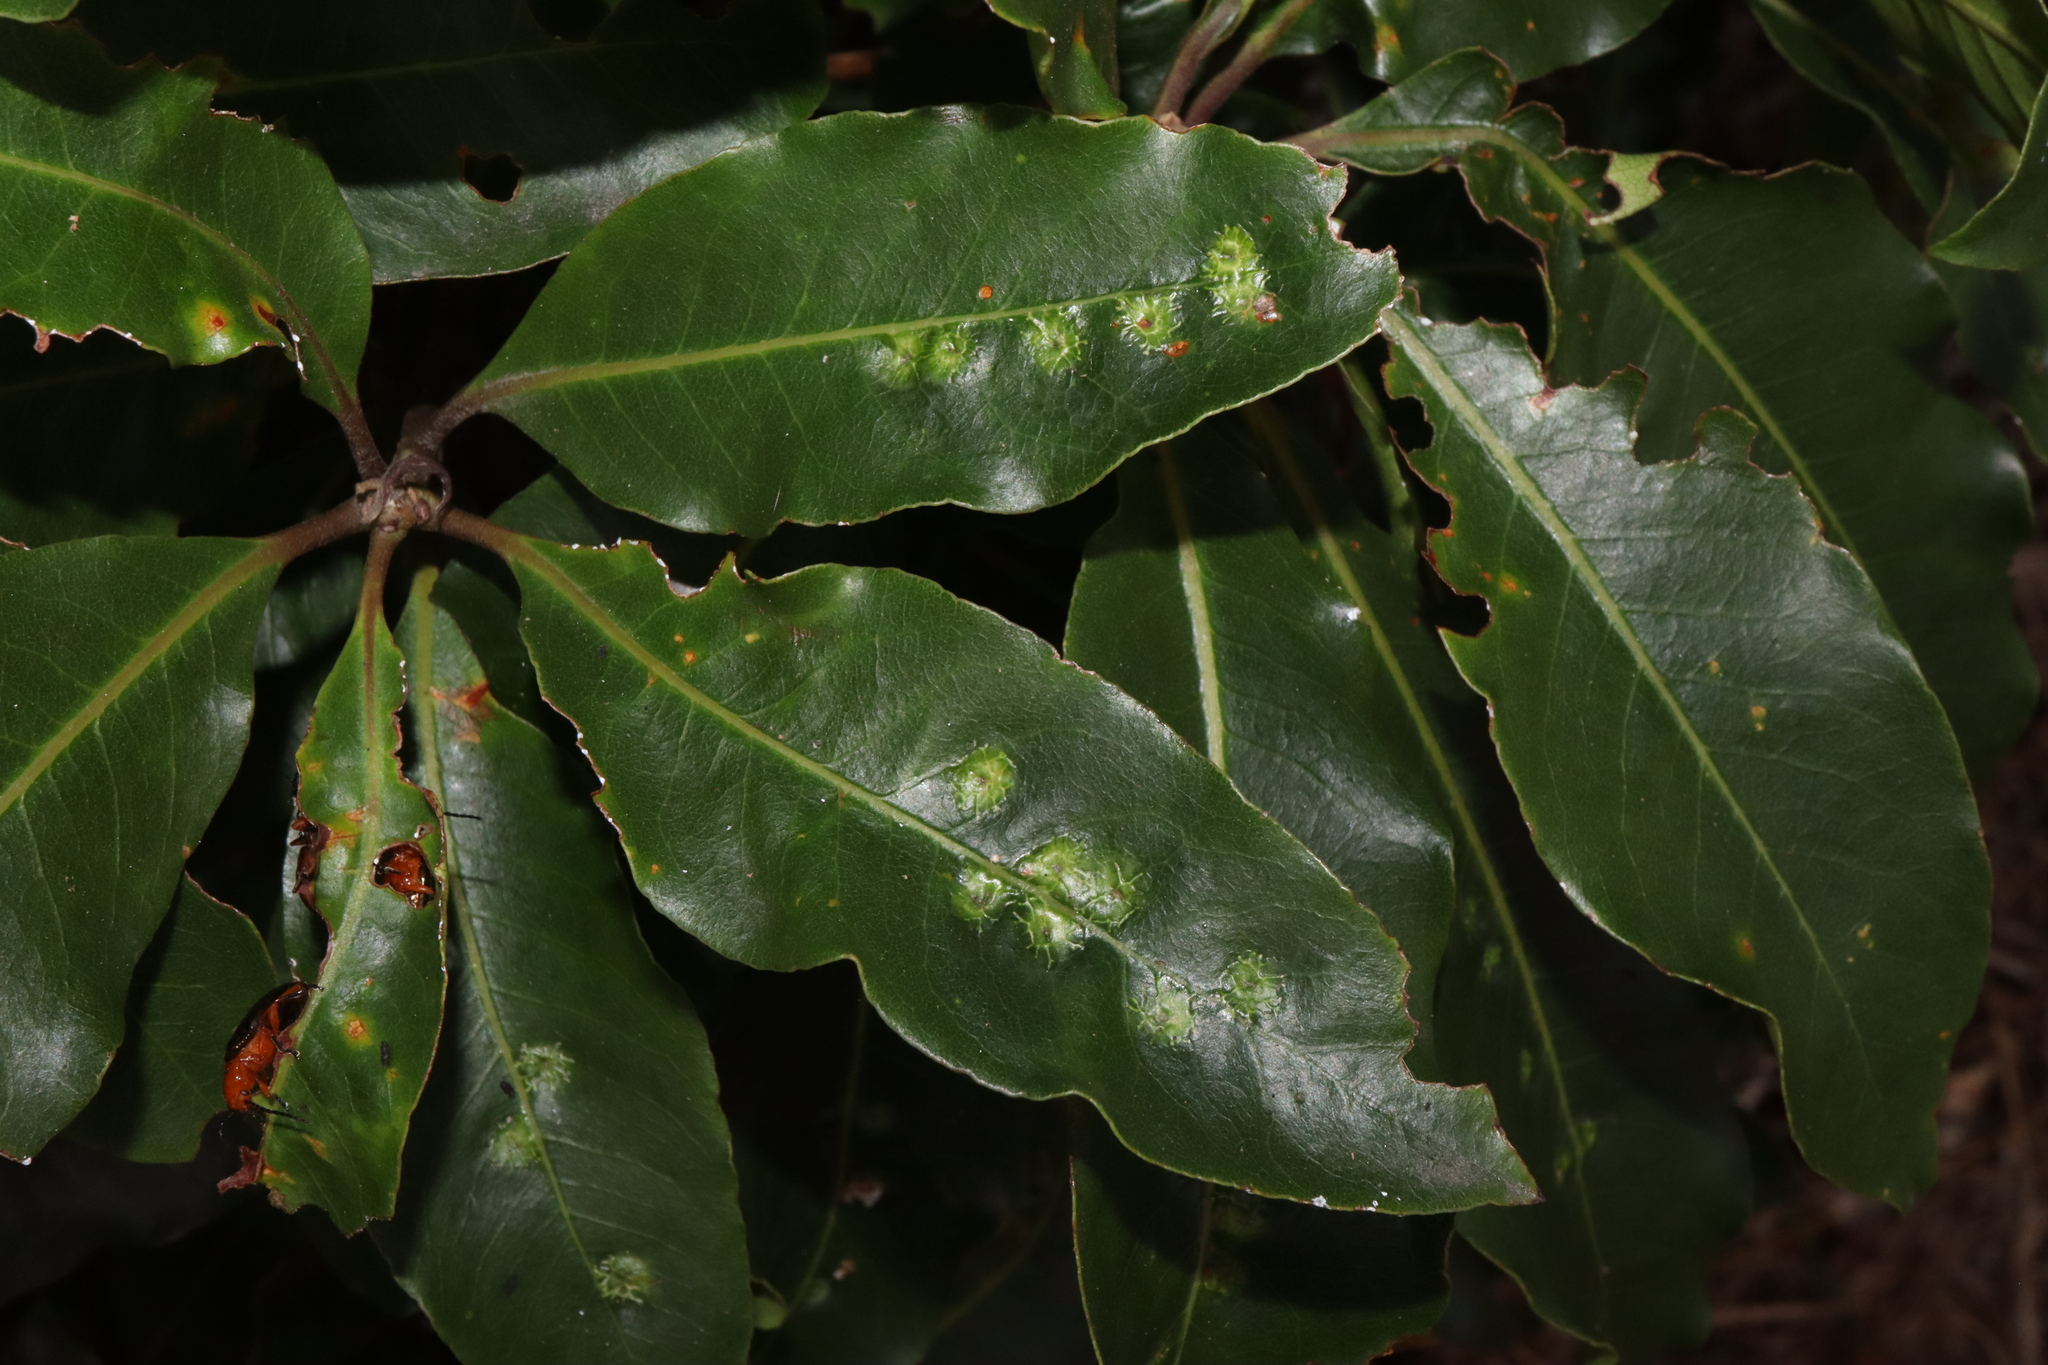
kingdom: Animalia
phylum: Arthropoda
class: Insecta
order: Diptera
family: Agromyzidae
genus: Phytoliriomyza
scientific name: Phytoliriomyza pittosporophylli
